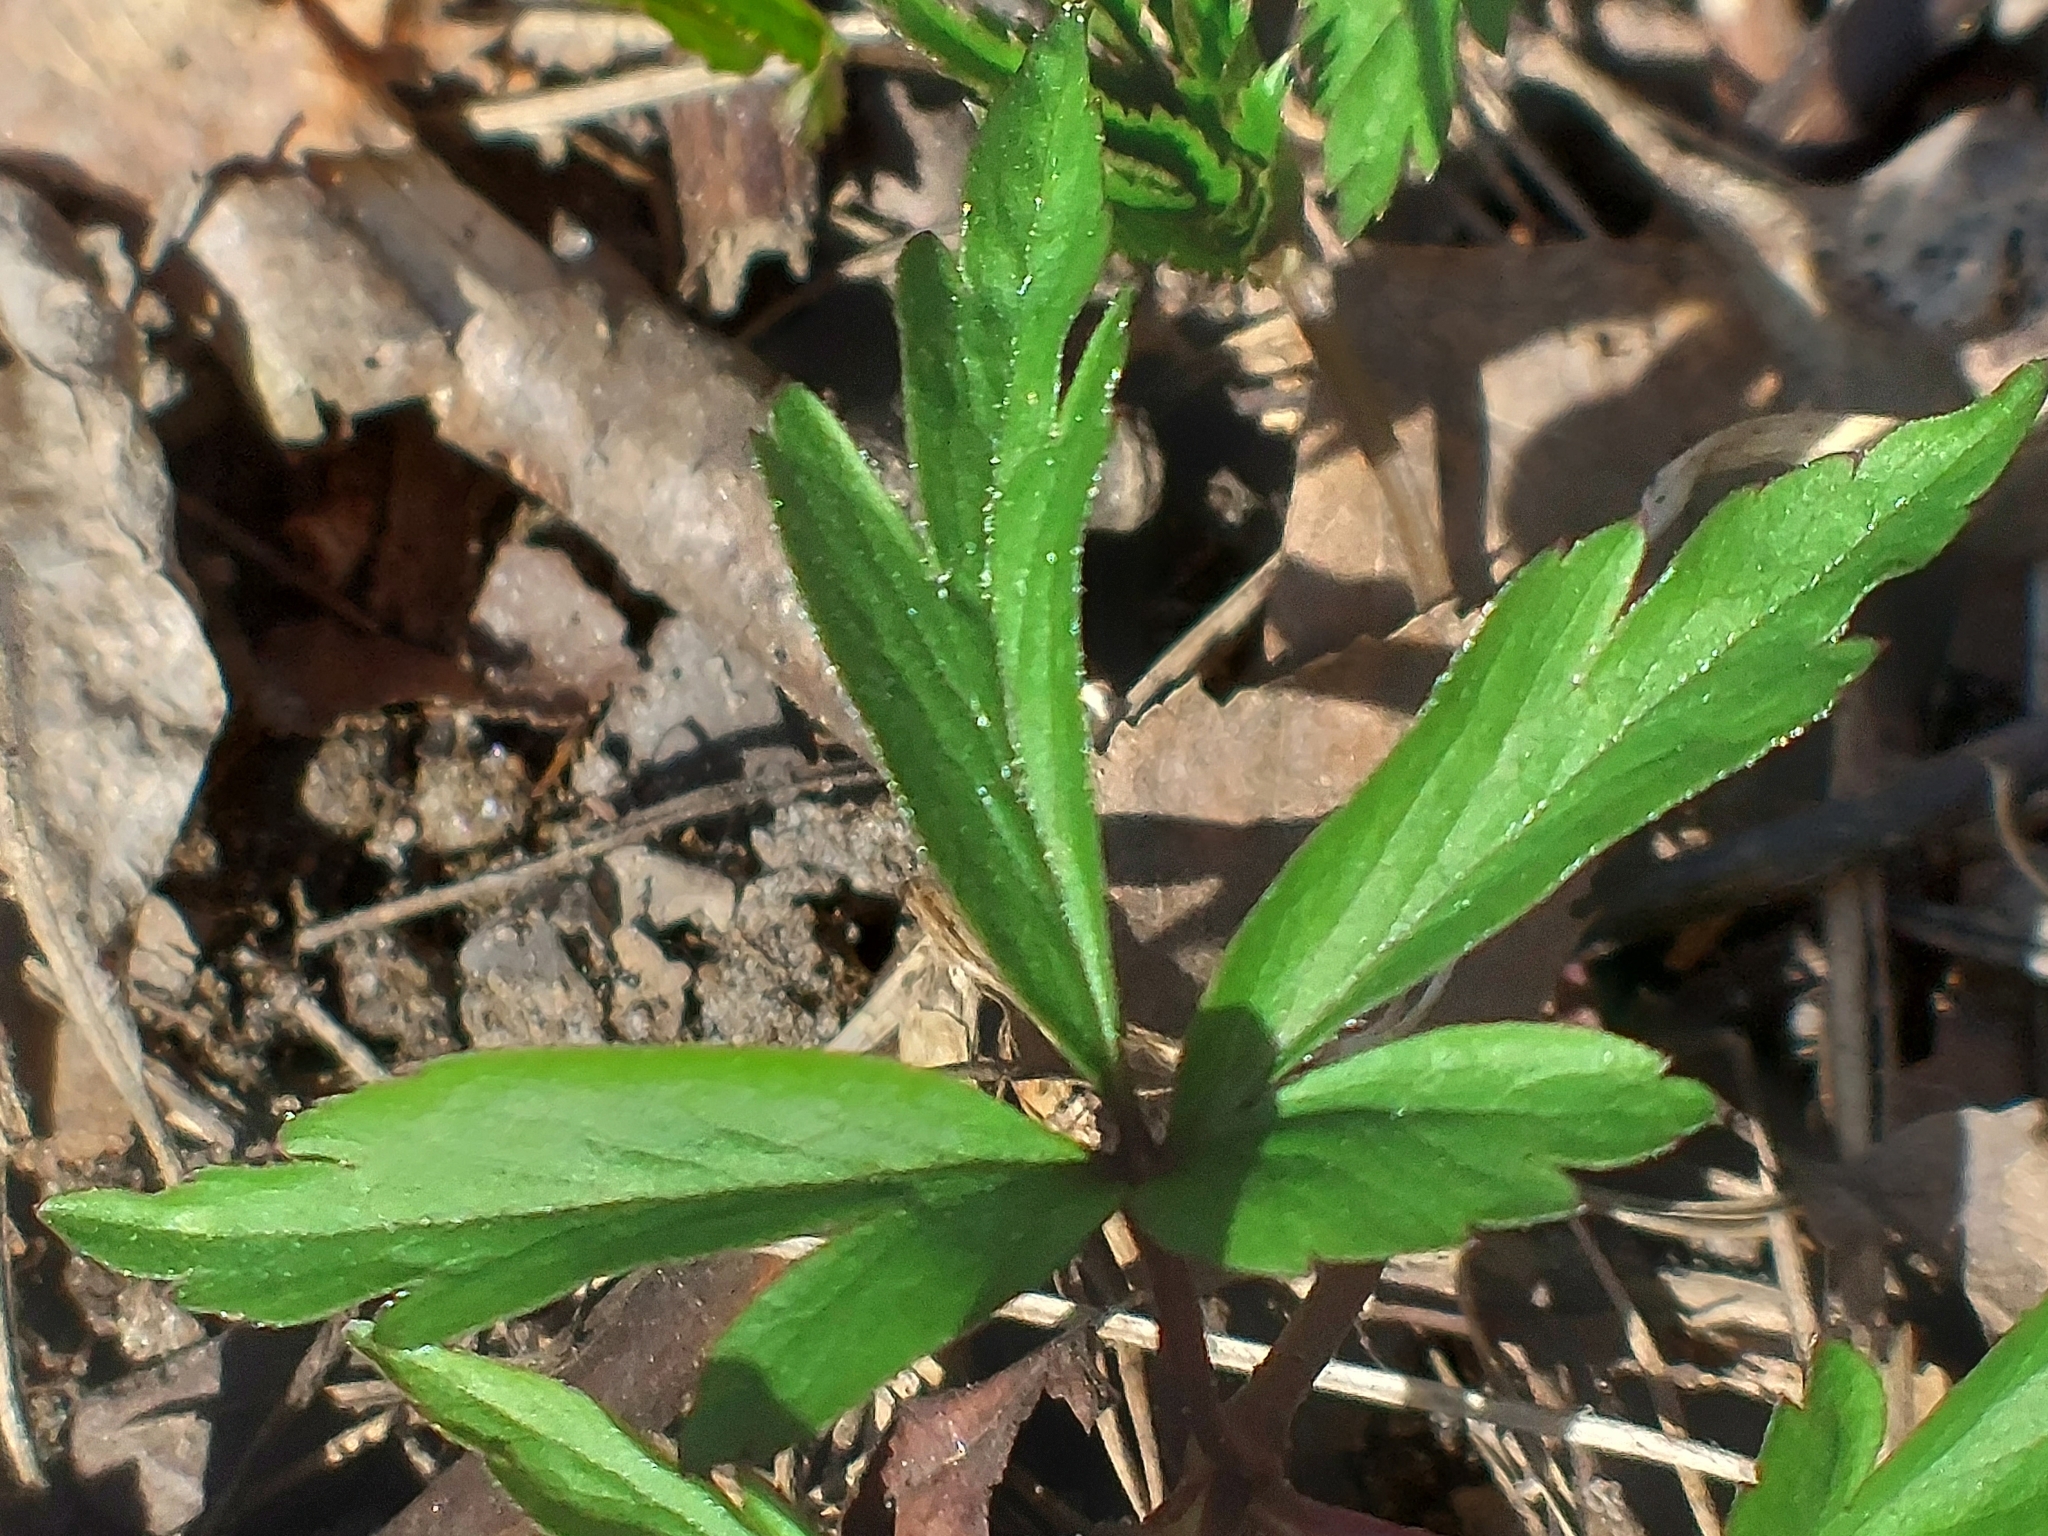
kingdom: Plantae
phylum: Tracheophyta
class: Magnoliopsida
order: Ranunculales
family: Ranunculaceae
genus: Anemone
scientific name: Anemone nemorosa
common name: Wood anemone
